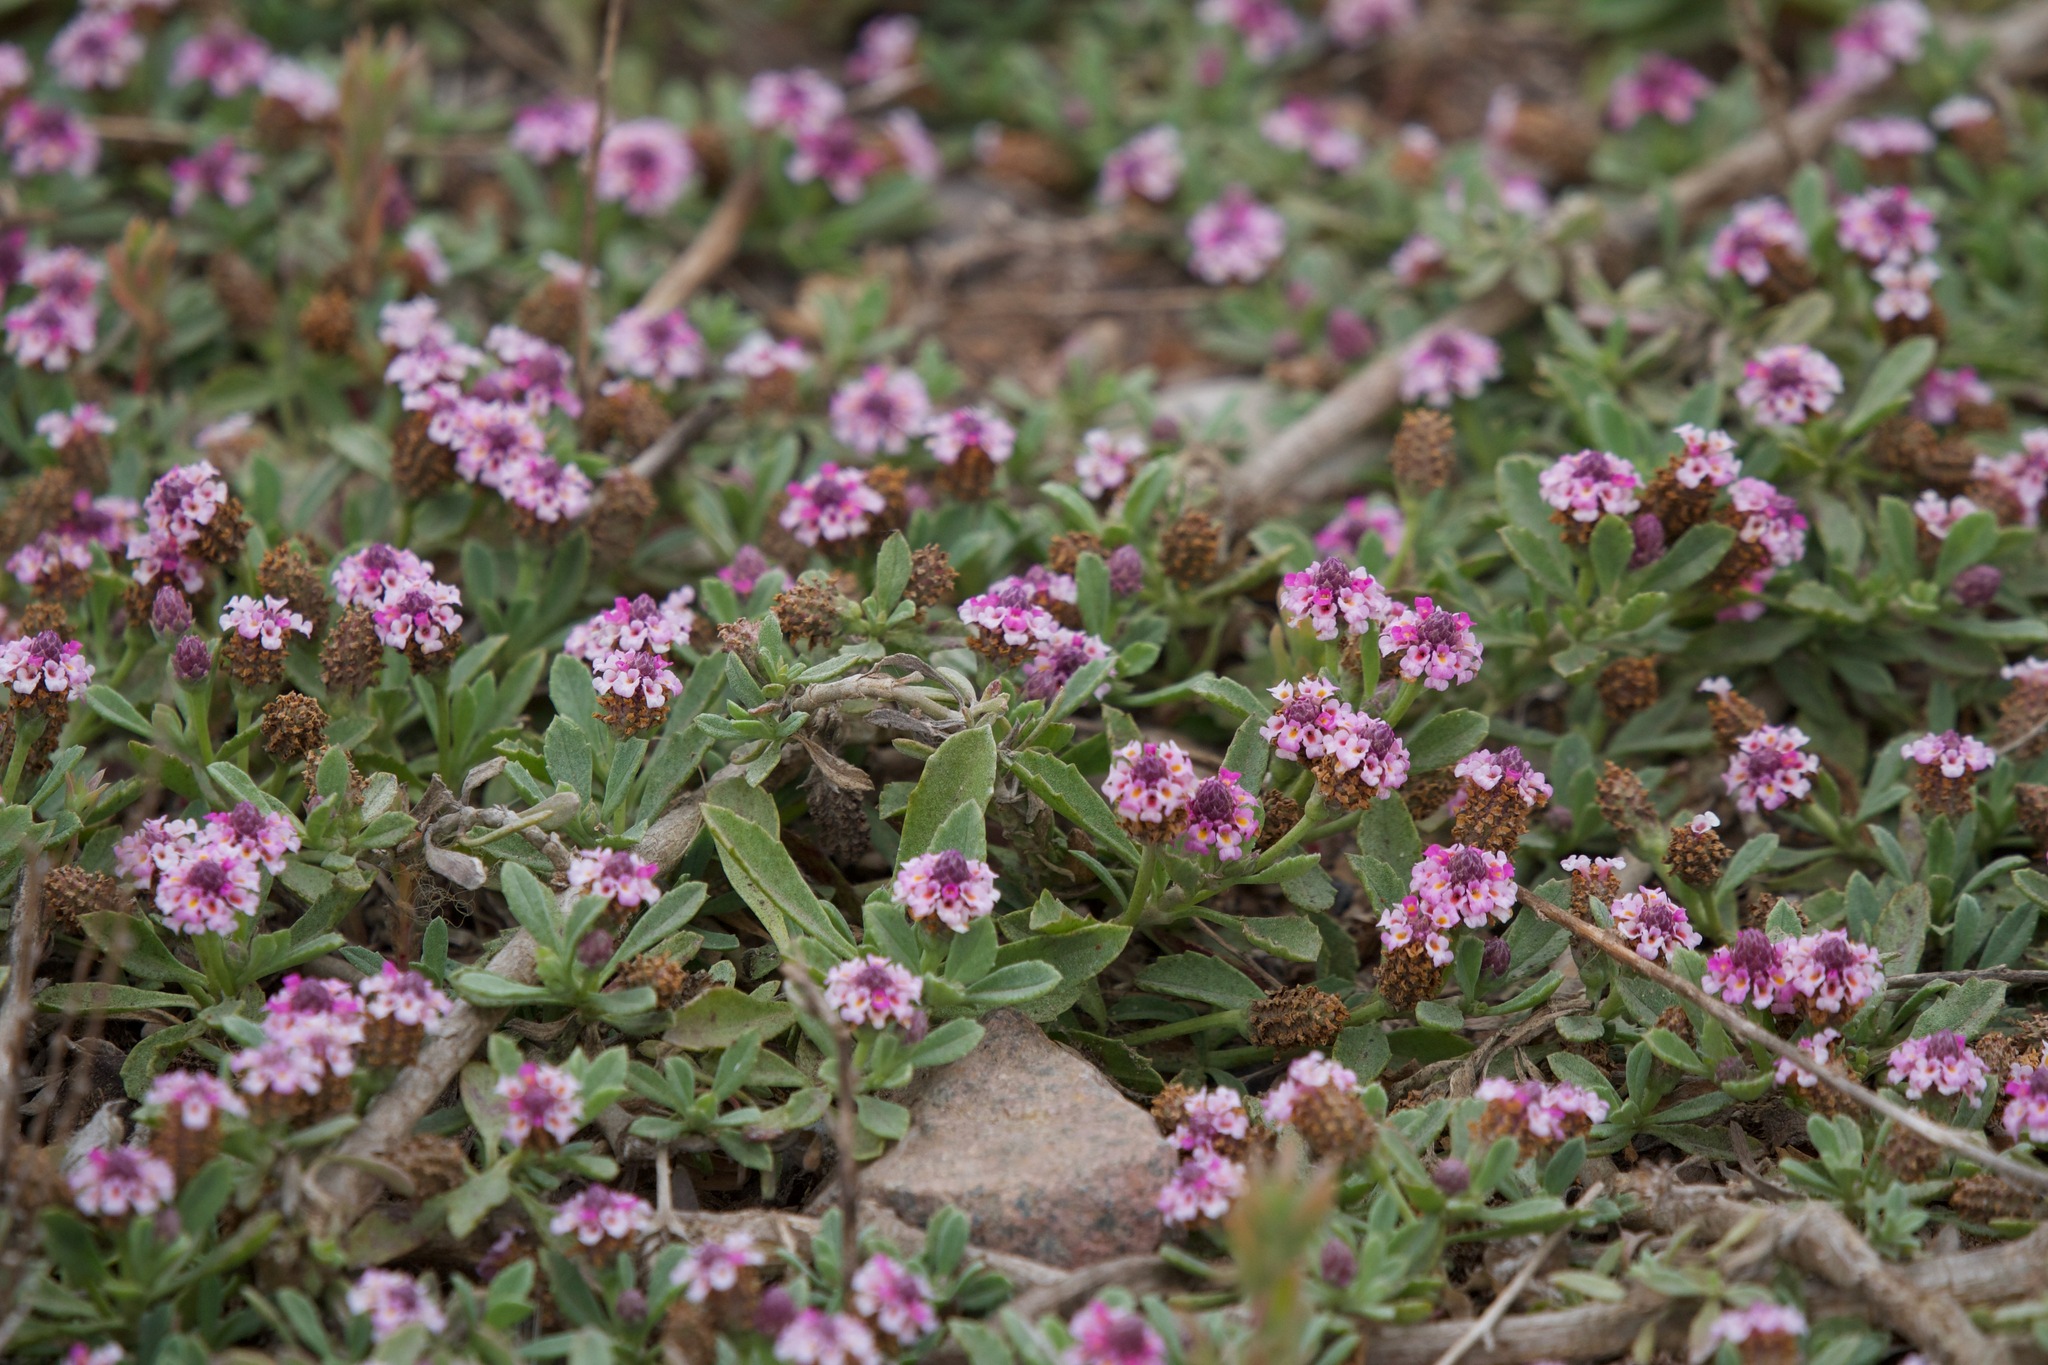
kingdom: Plantae
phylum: Tracheophyta
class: Magnoliopsida
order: Lamiales
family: Verbenaceae
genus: Phyla
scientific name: Phyla nodiflora
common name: Frogfruit
